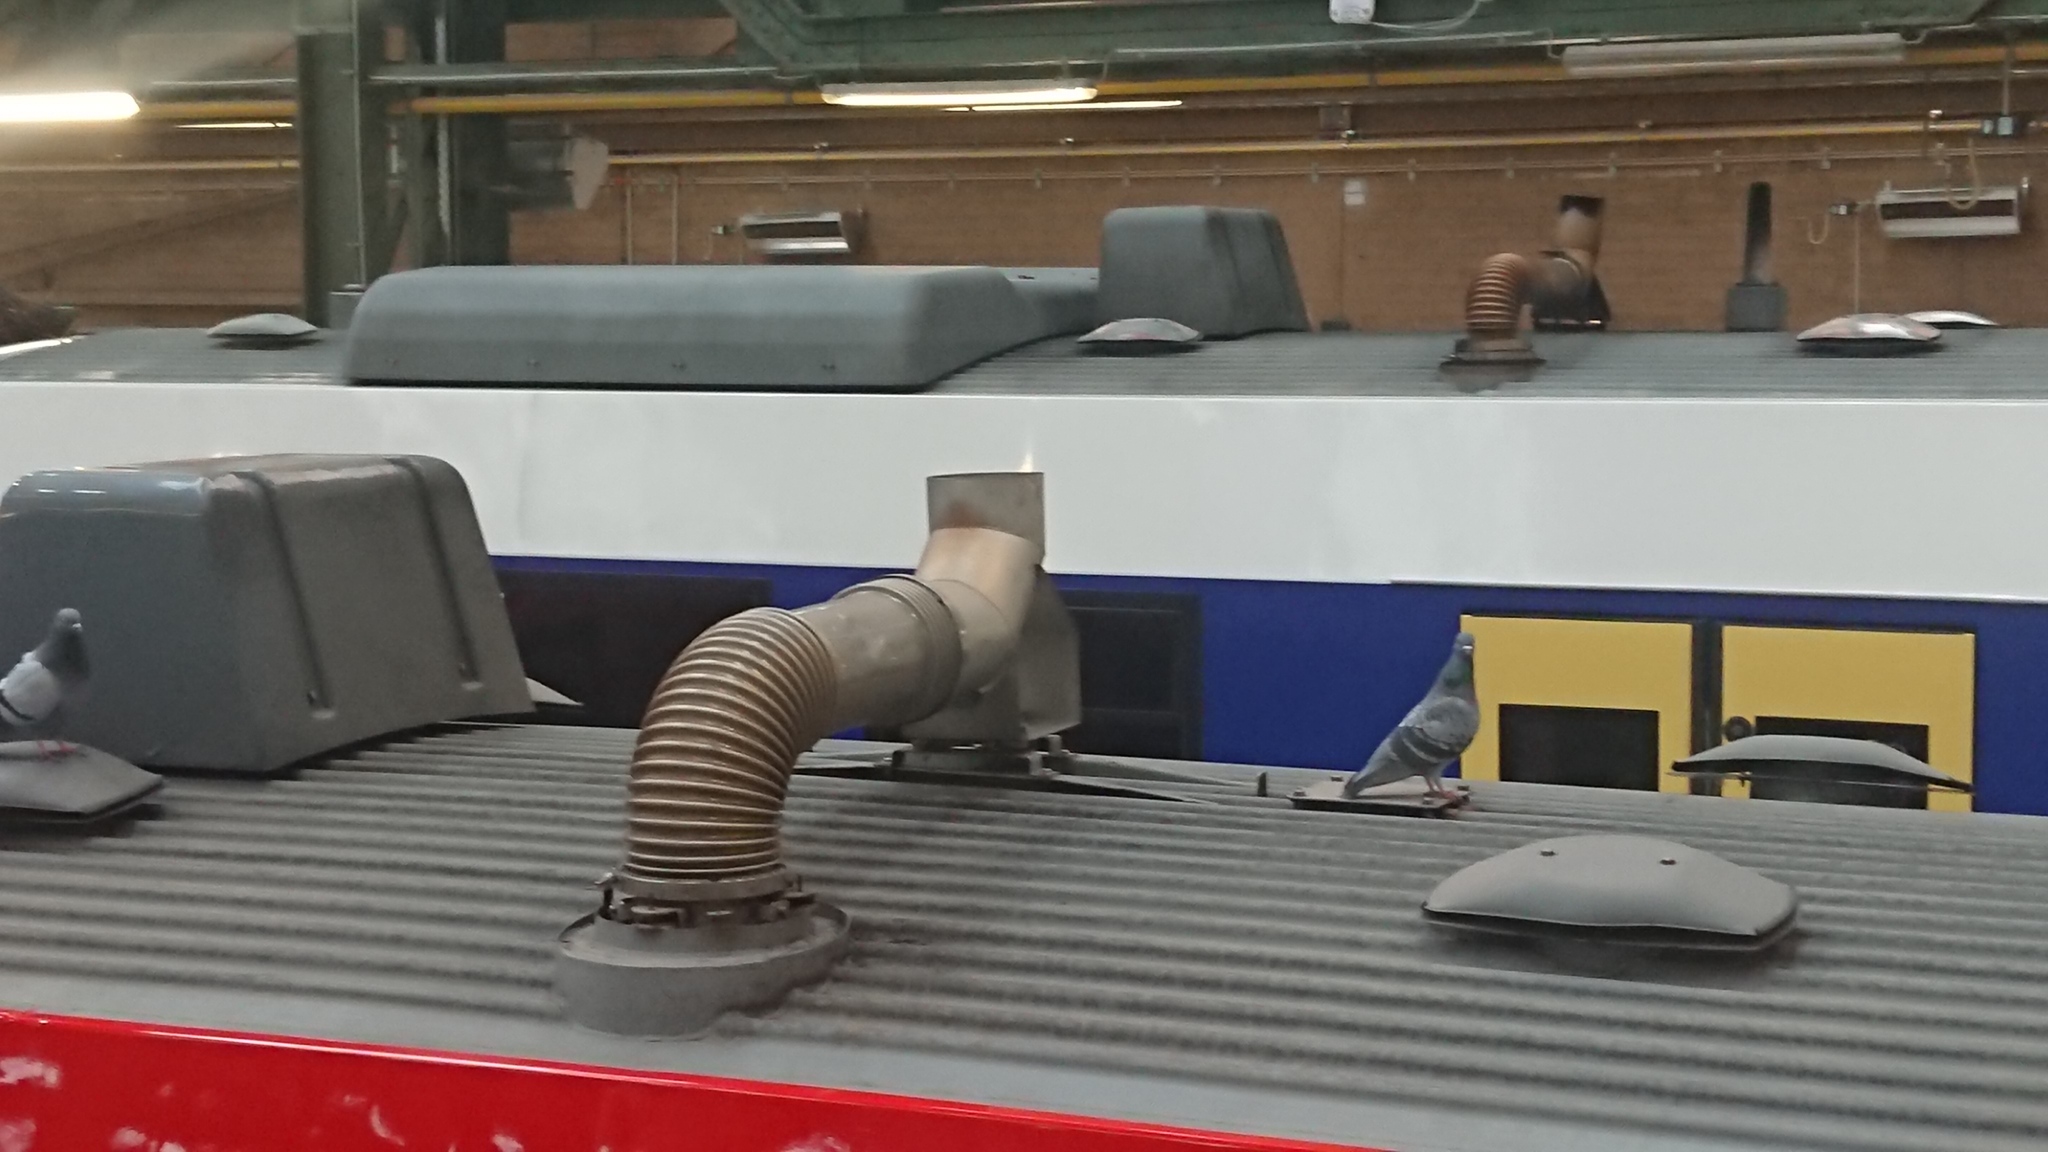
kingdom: Animalia
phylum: Chordata
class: Aves
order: Columbiformes
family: Columbidae
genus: Columba
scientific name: Columba livia
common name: Rock pigeon
